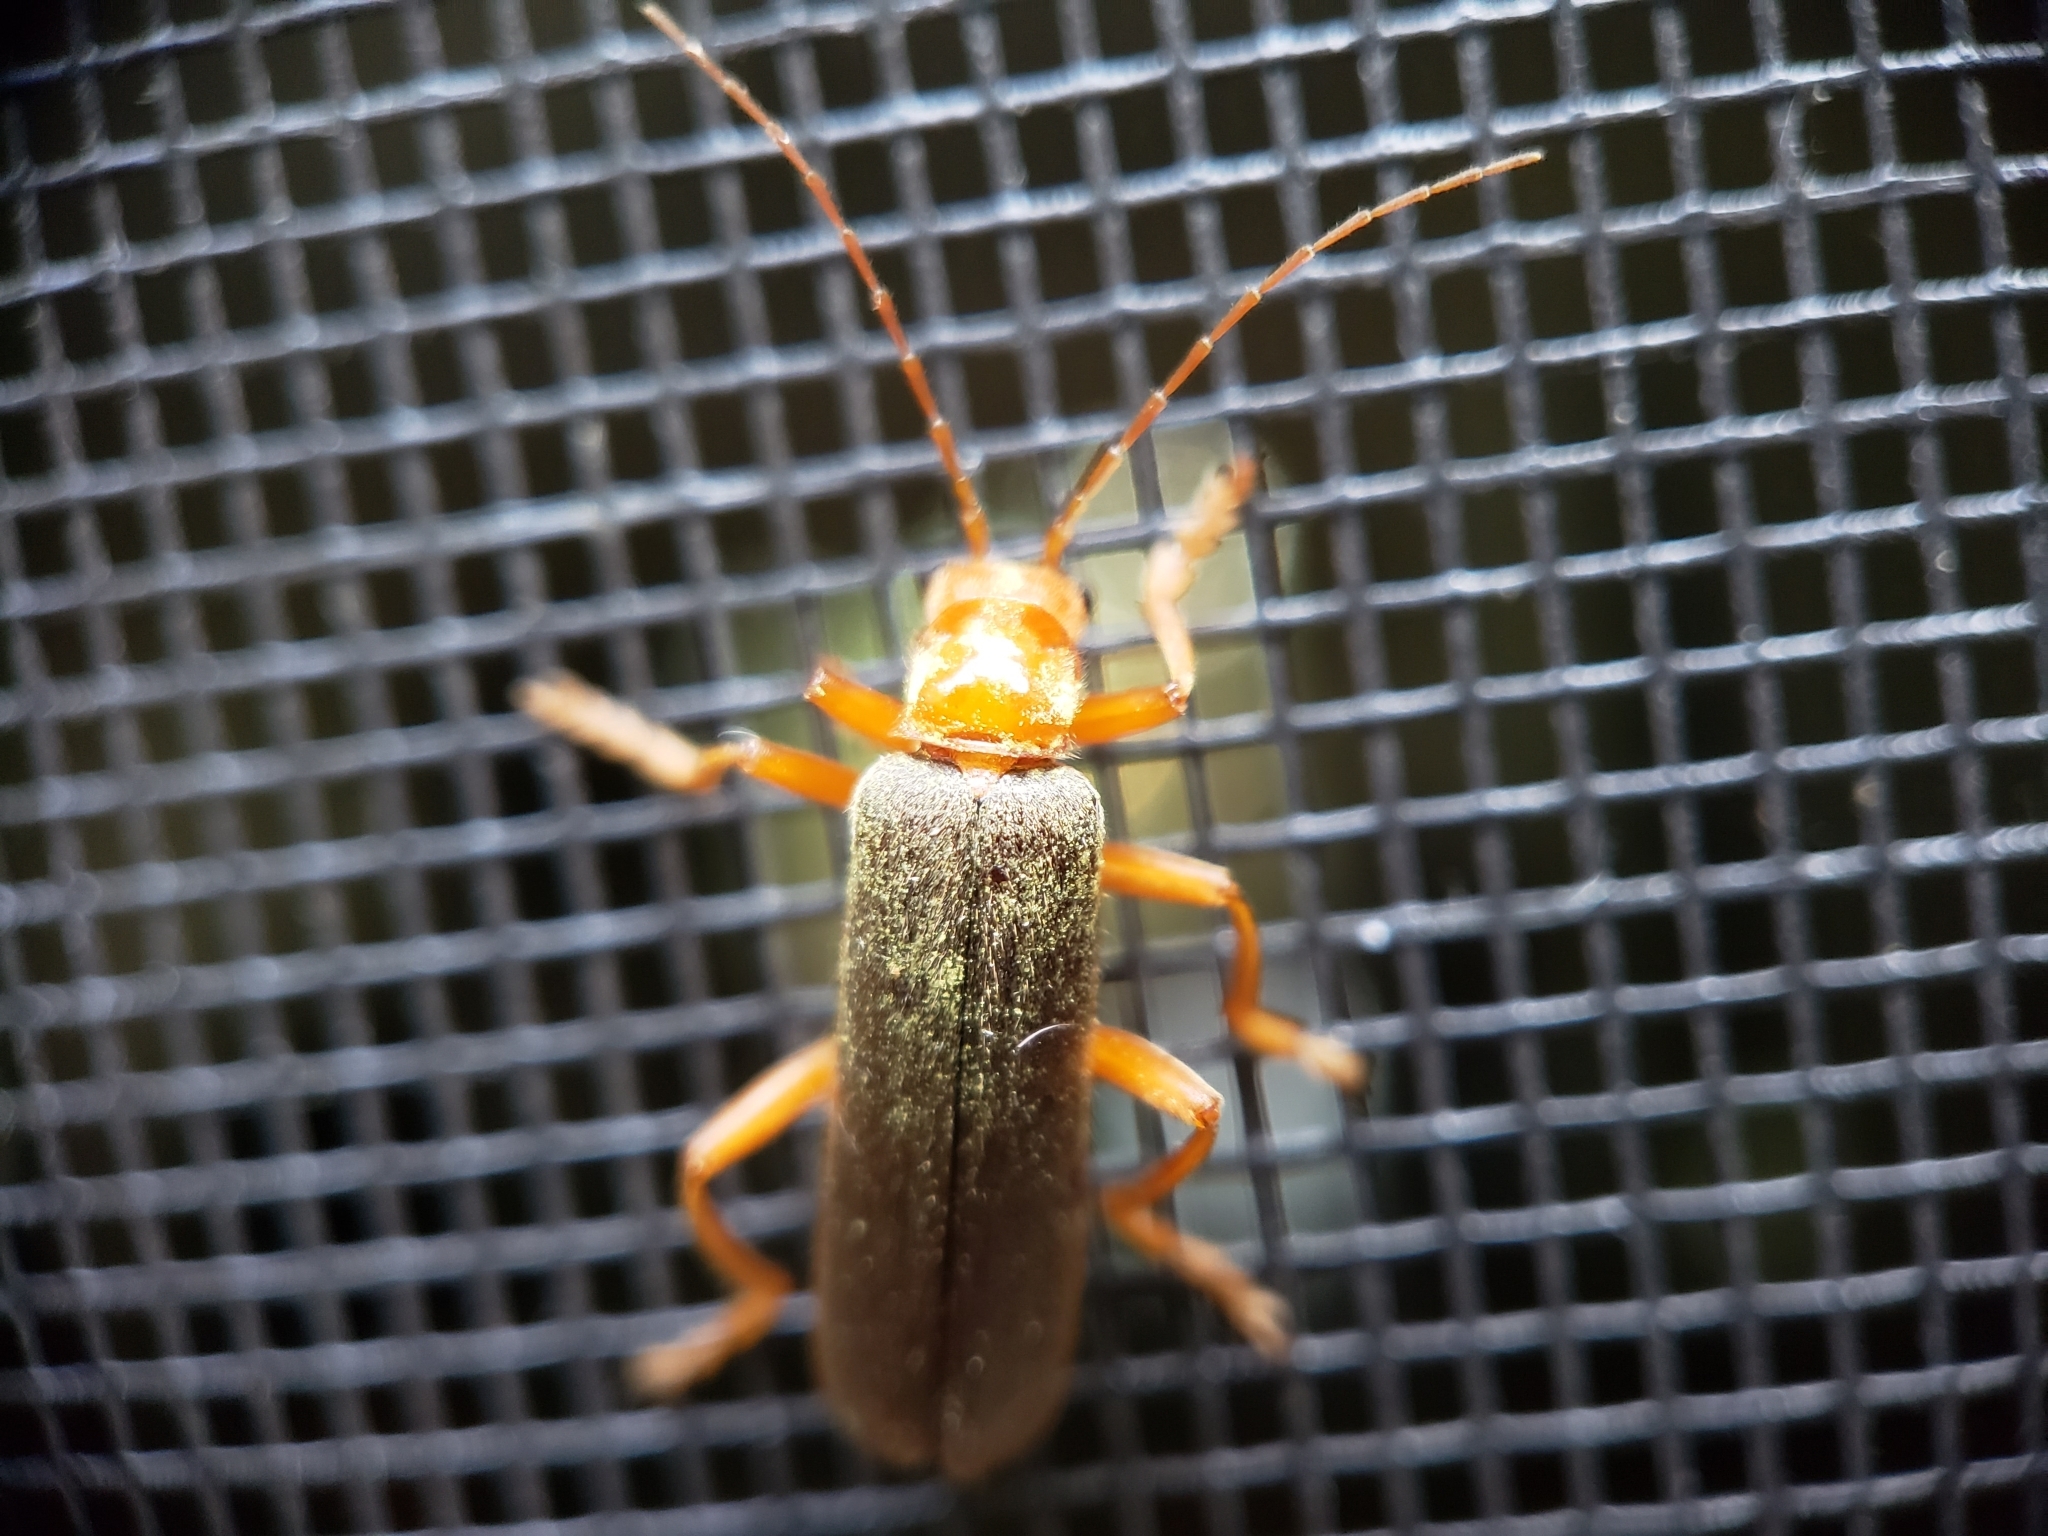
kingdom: Animalia
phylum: Arthropoda
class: Insecta
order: Coleoptera
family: Cantharidae
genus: Pacificanthia
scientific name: Pacificanthia rotundicollis
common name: Brown leatherwing beetle
